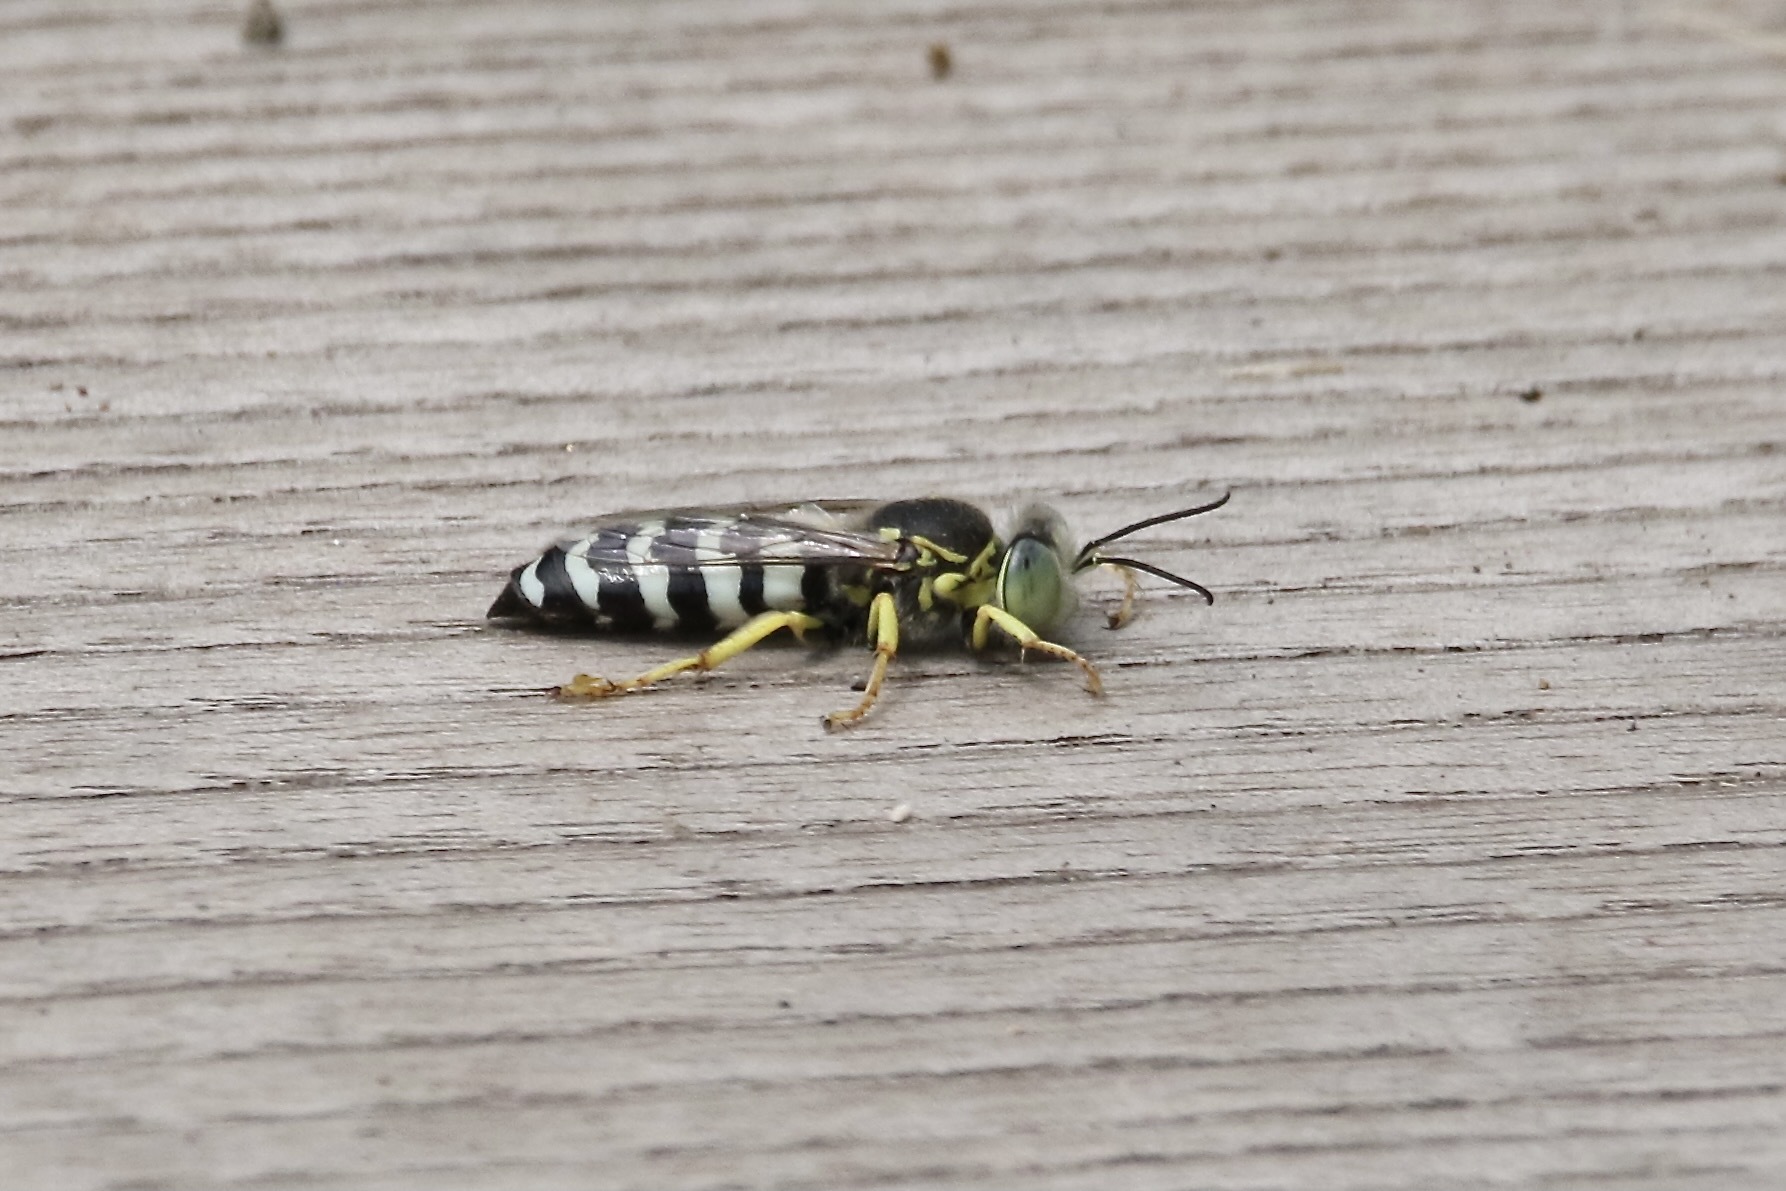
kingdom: Animalia
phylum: Arthropoda
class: Insecta
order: Hymenoptera
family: Crabronidae
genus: Bembix
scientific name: Bembix americana
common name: American sand wasp
